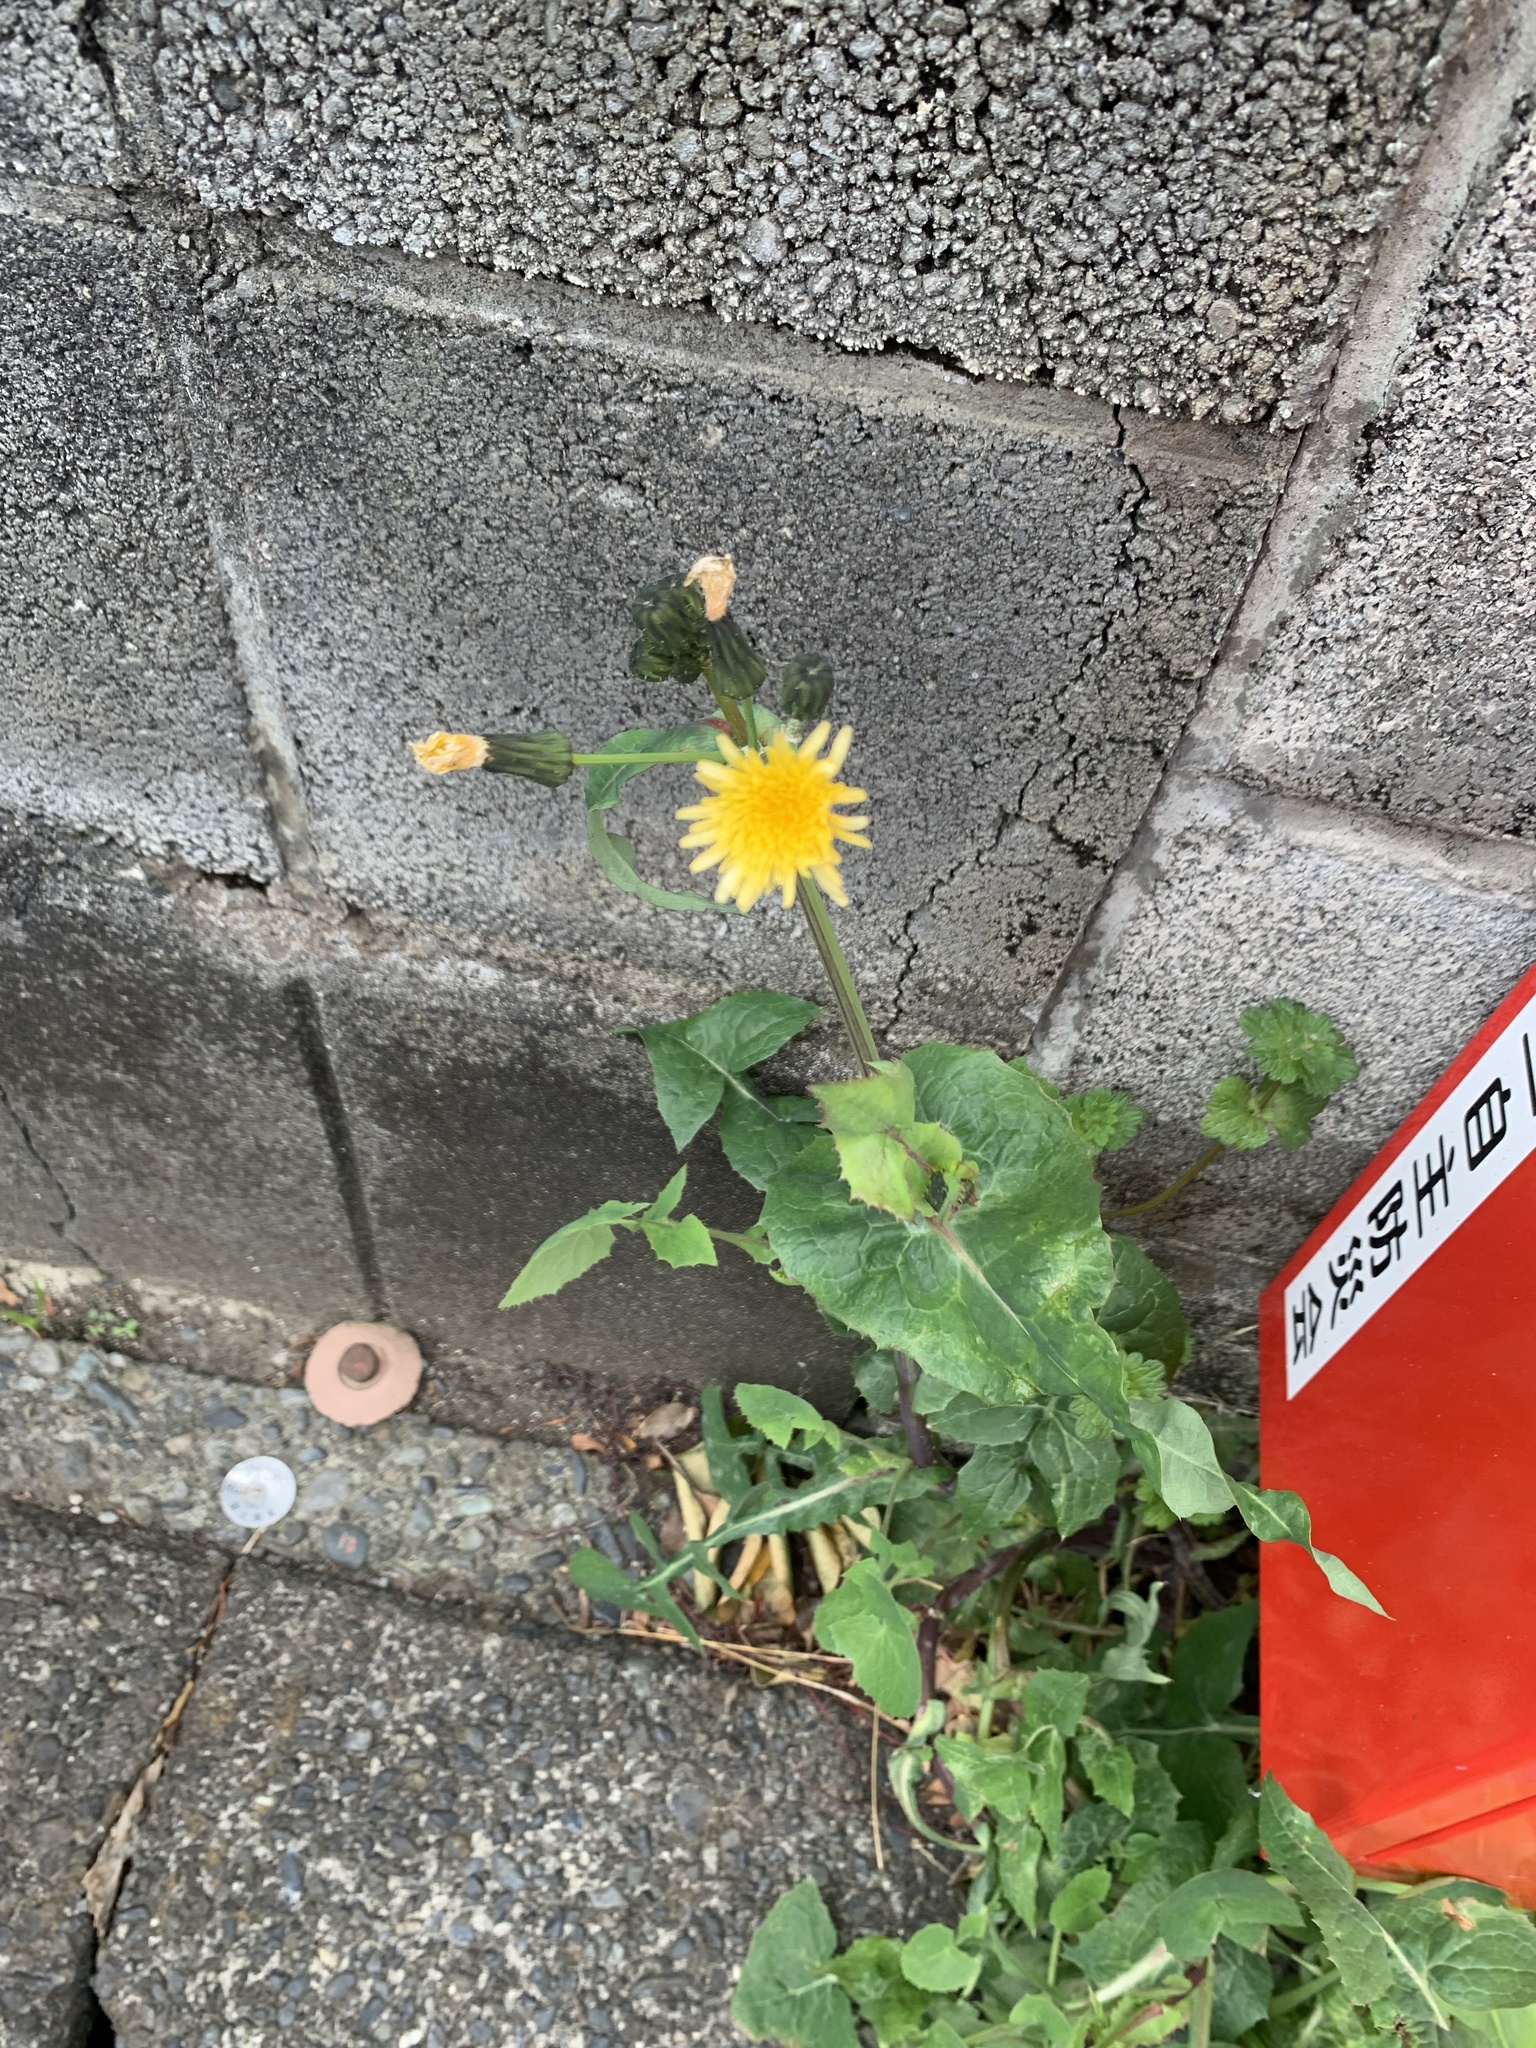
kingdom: Plantae
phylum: Tracheophyta
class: Magnoliopsida
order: Asterales
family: Asteraceae
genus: Sonchus
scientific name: Sonchus oleraceus
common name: Common sowthistle
